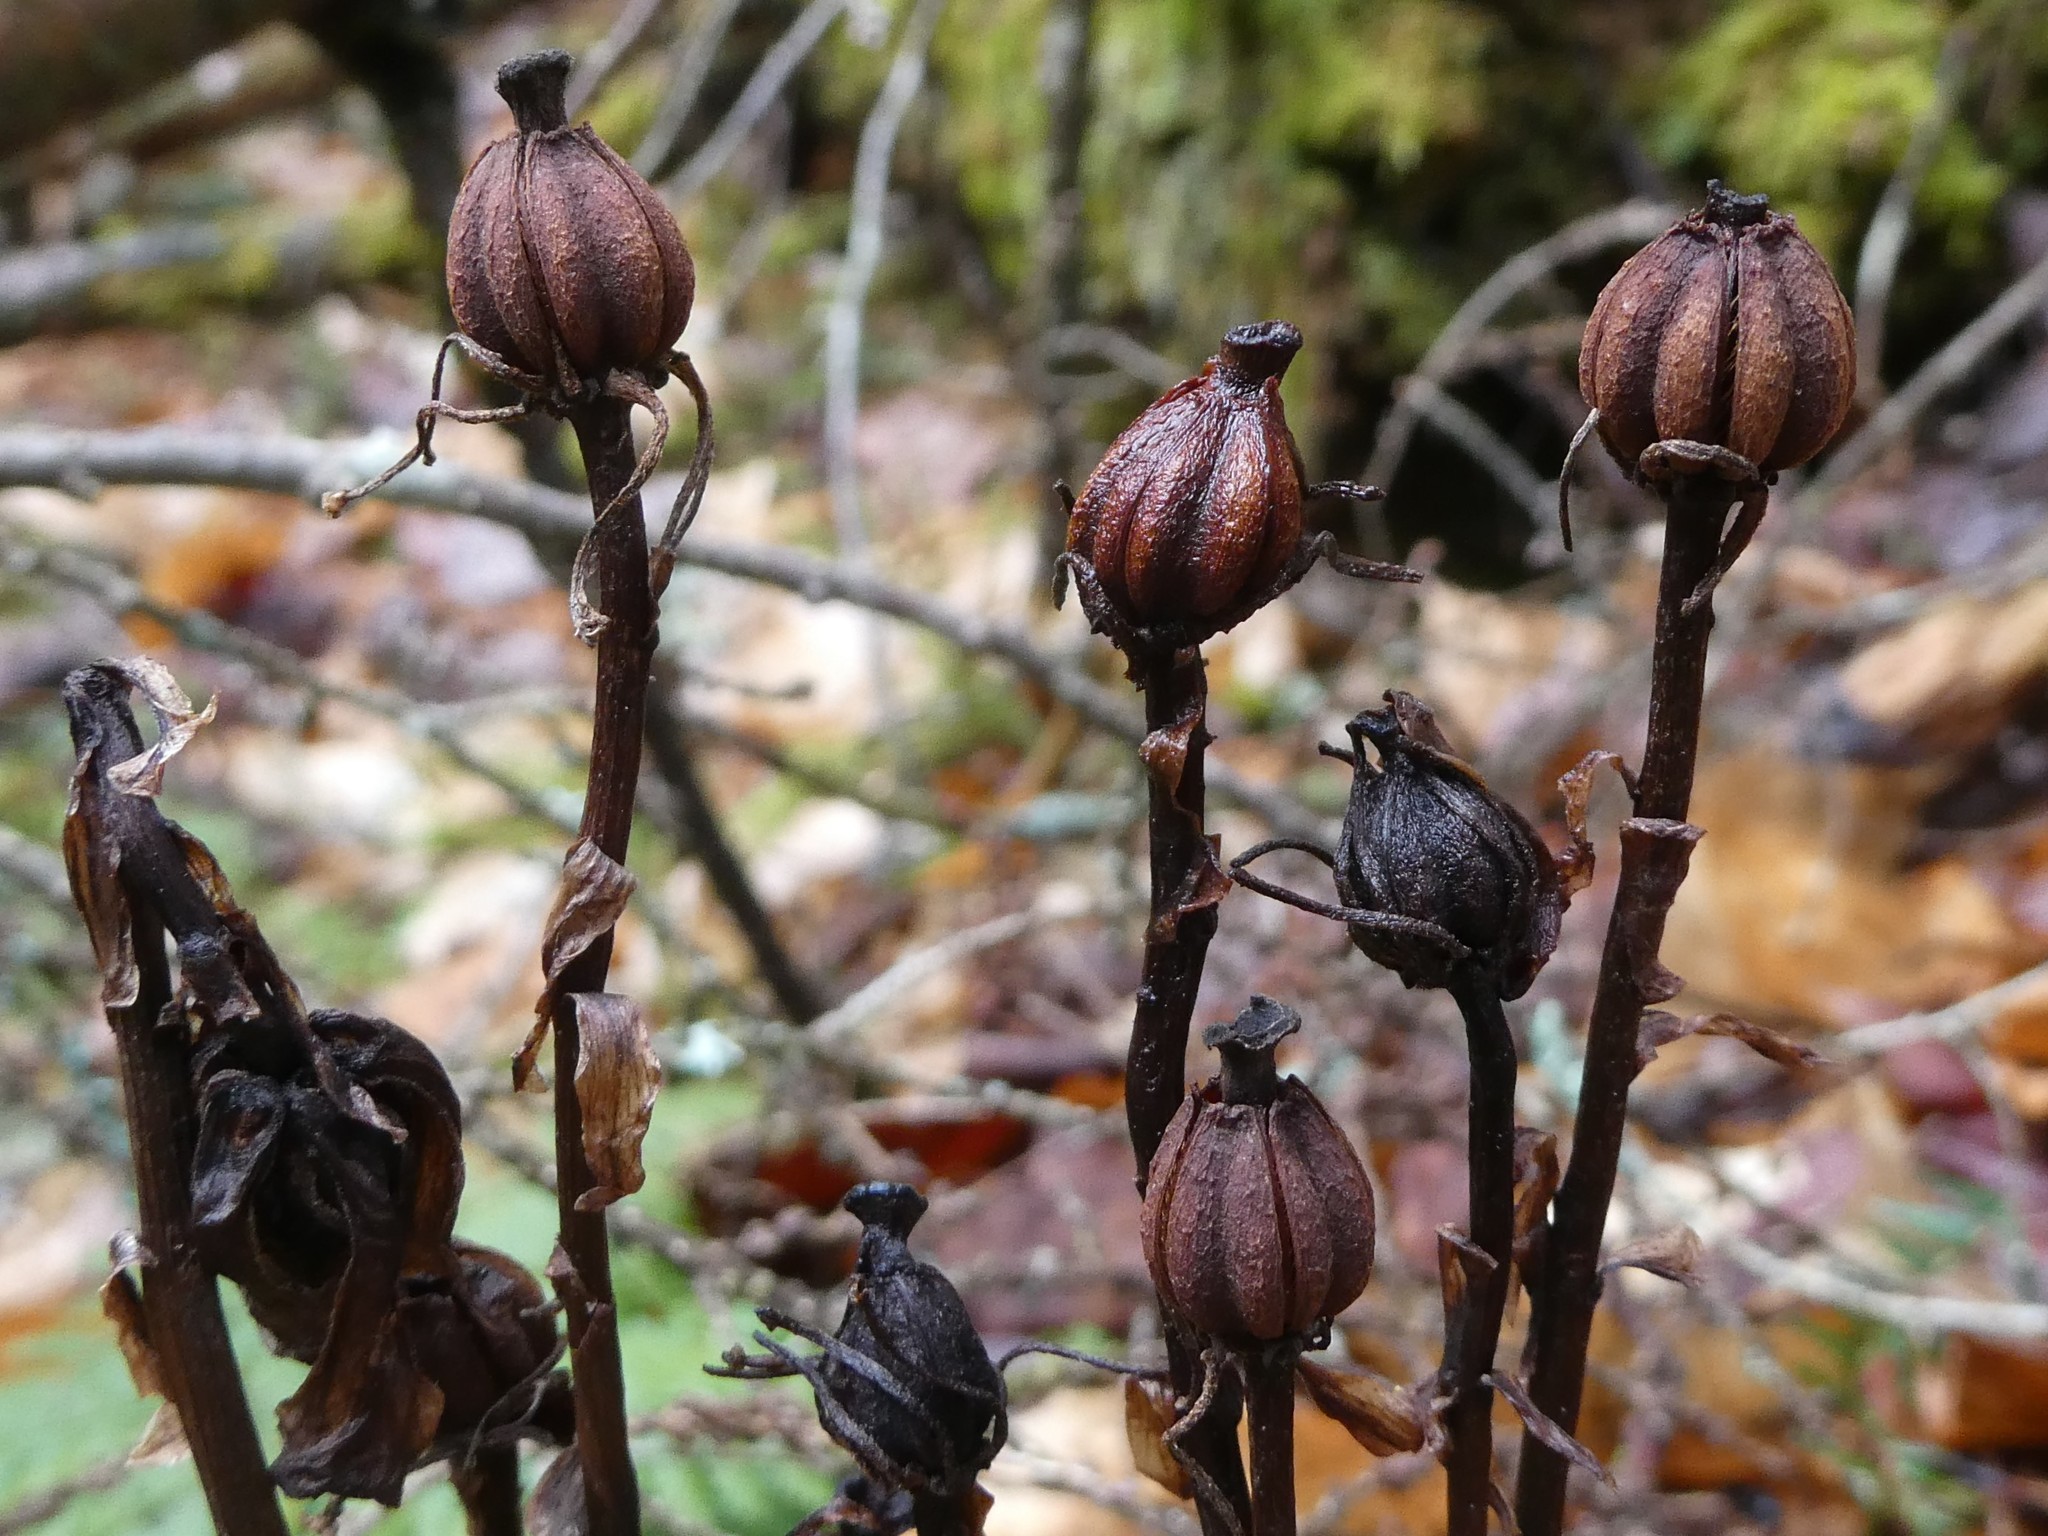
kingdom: Plantae
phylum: Tracheophyta
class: Magnoliopsida
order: Ericales
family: Ericaceae
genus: Monotropa
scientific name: Monotropa uniflora
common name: Convulsion root
